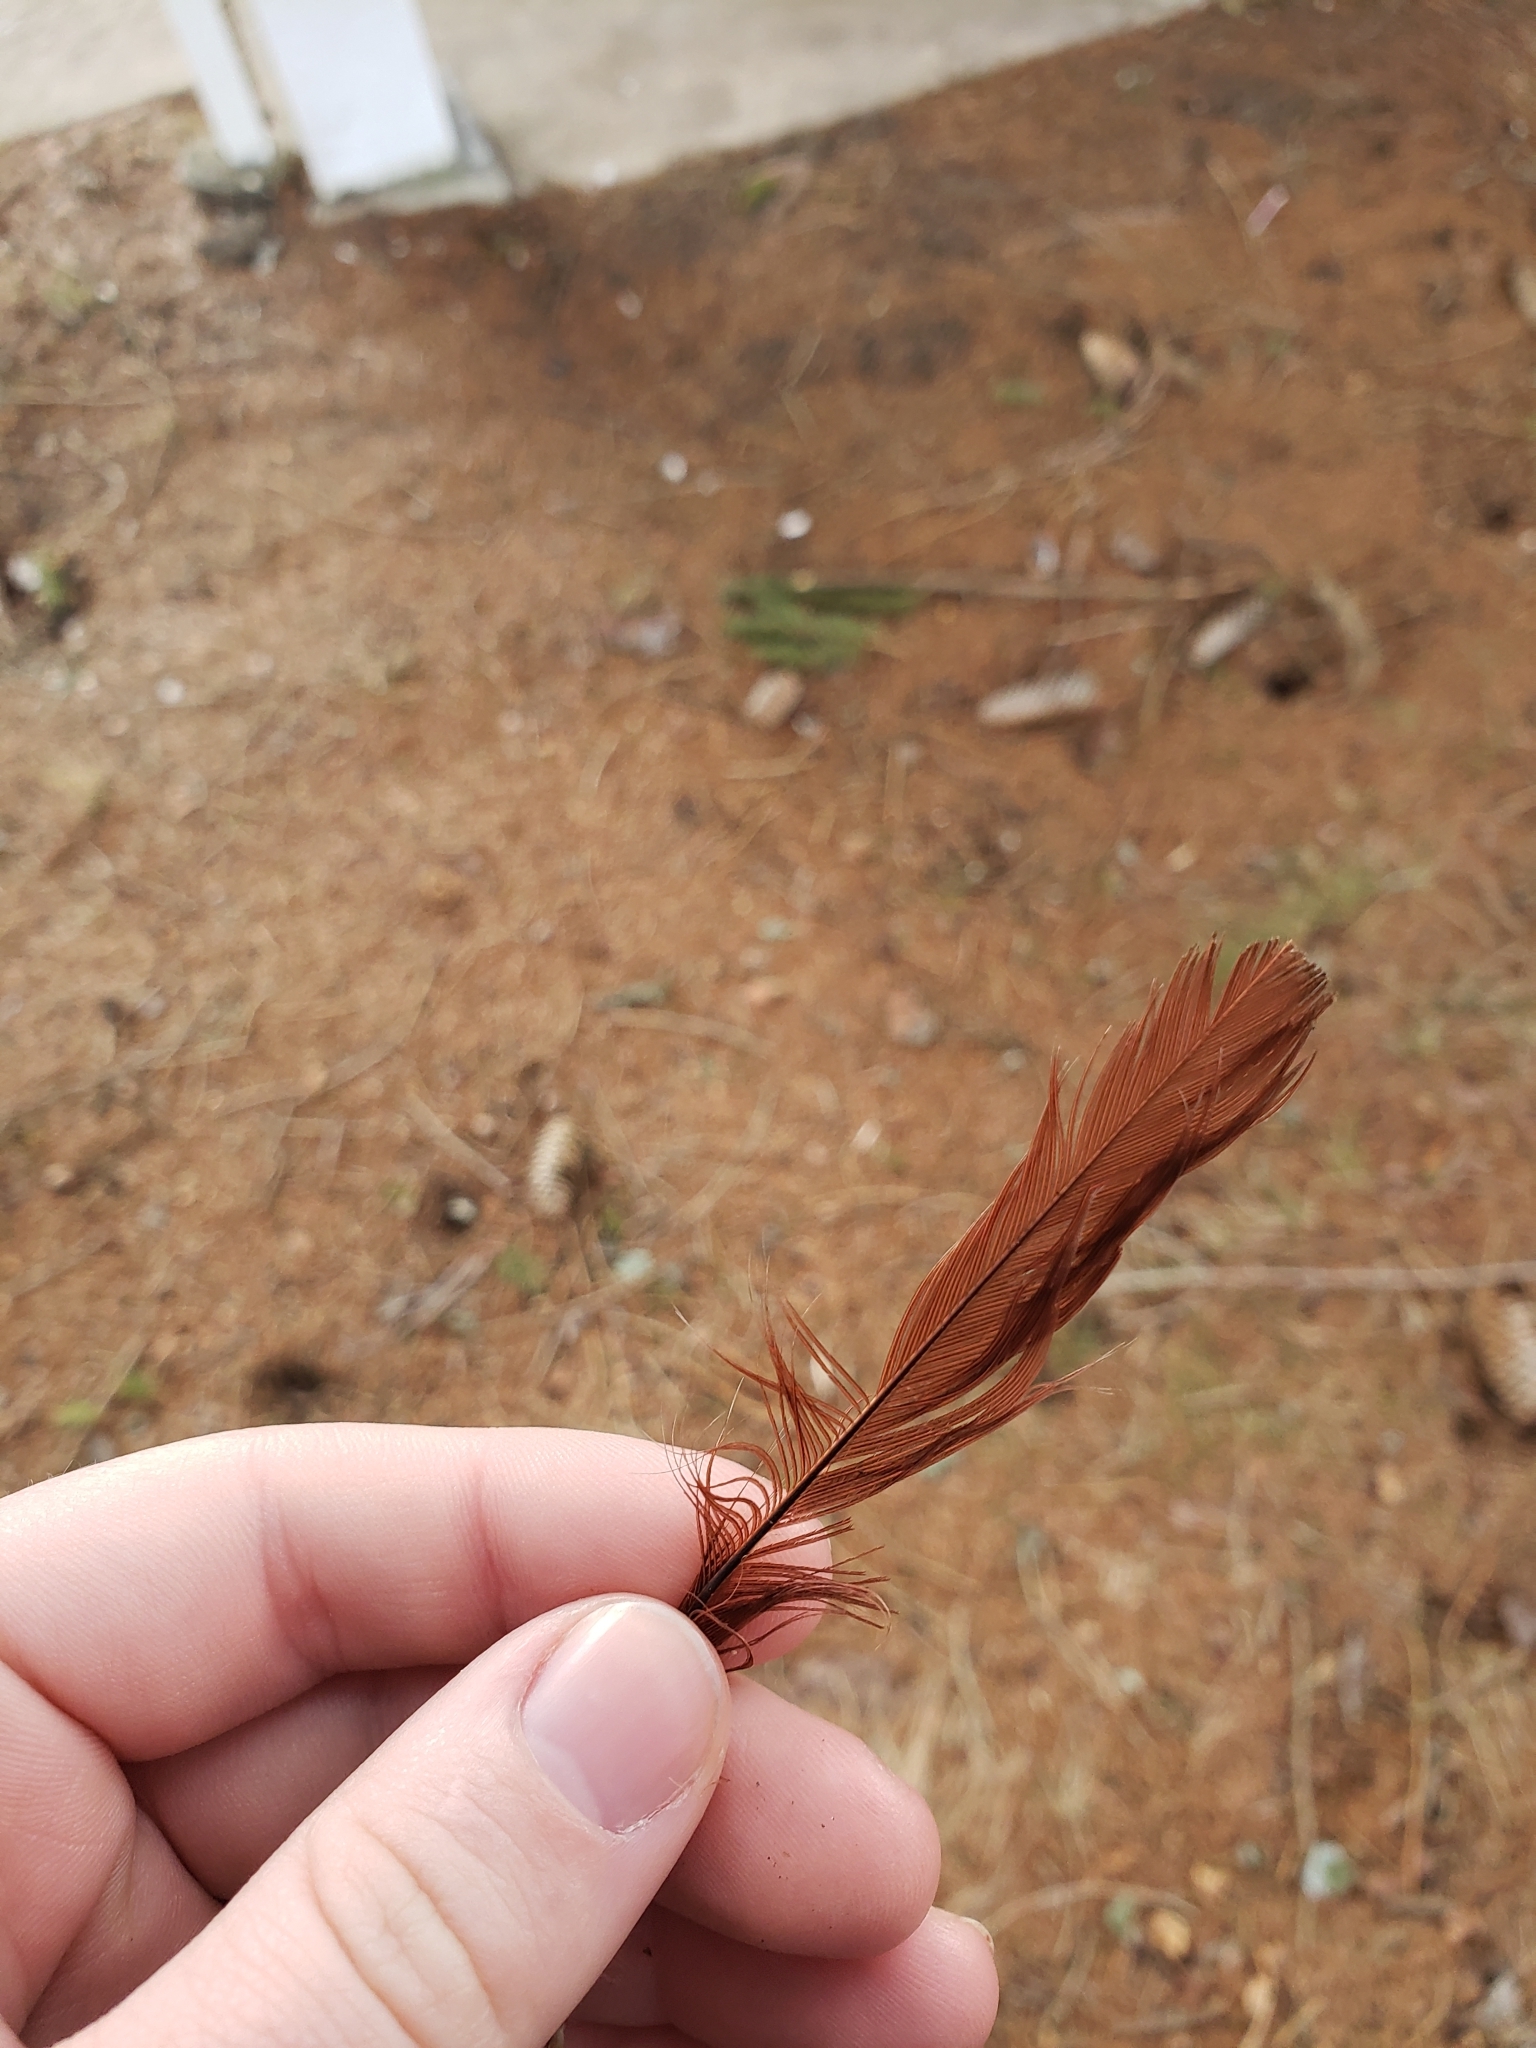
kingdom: Animalia
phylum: Chordata
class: Aves
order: Passeriformes
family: Cardinalidae
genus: Cardinalis
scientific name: Cardinalis cardinalis
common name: Northern cardinal
